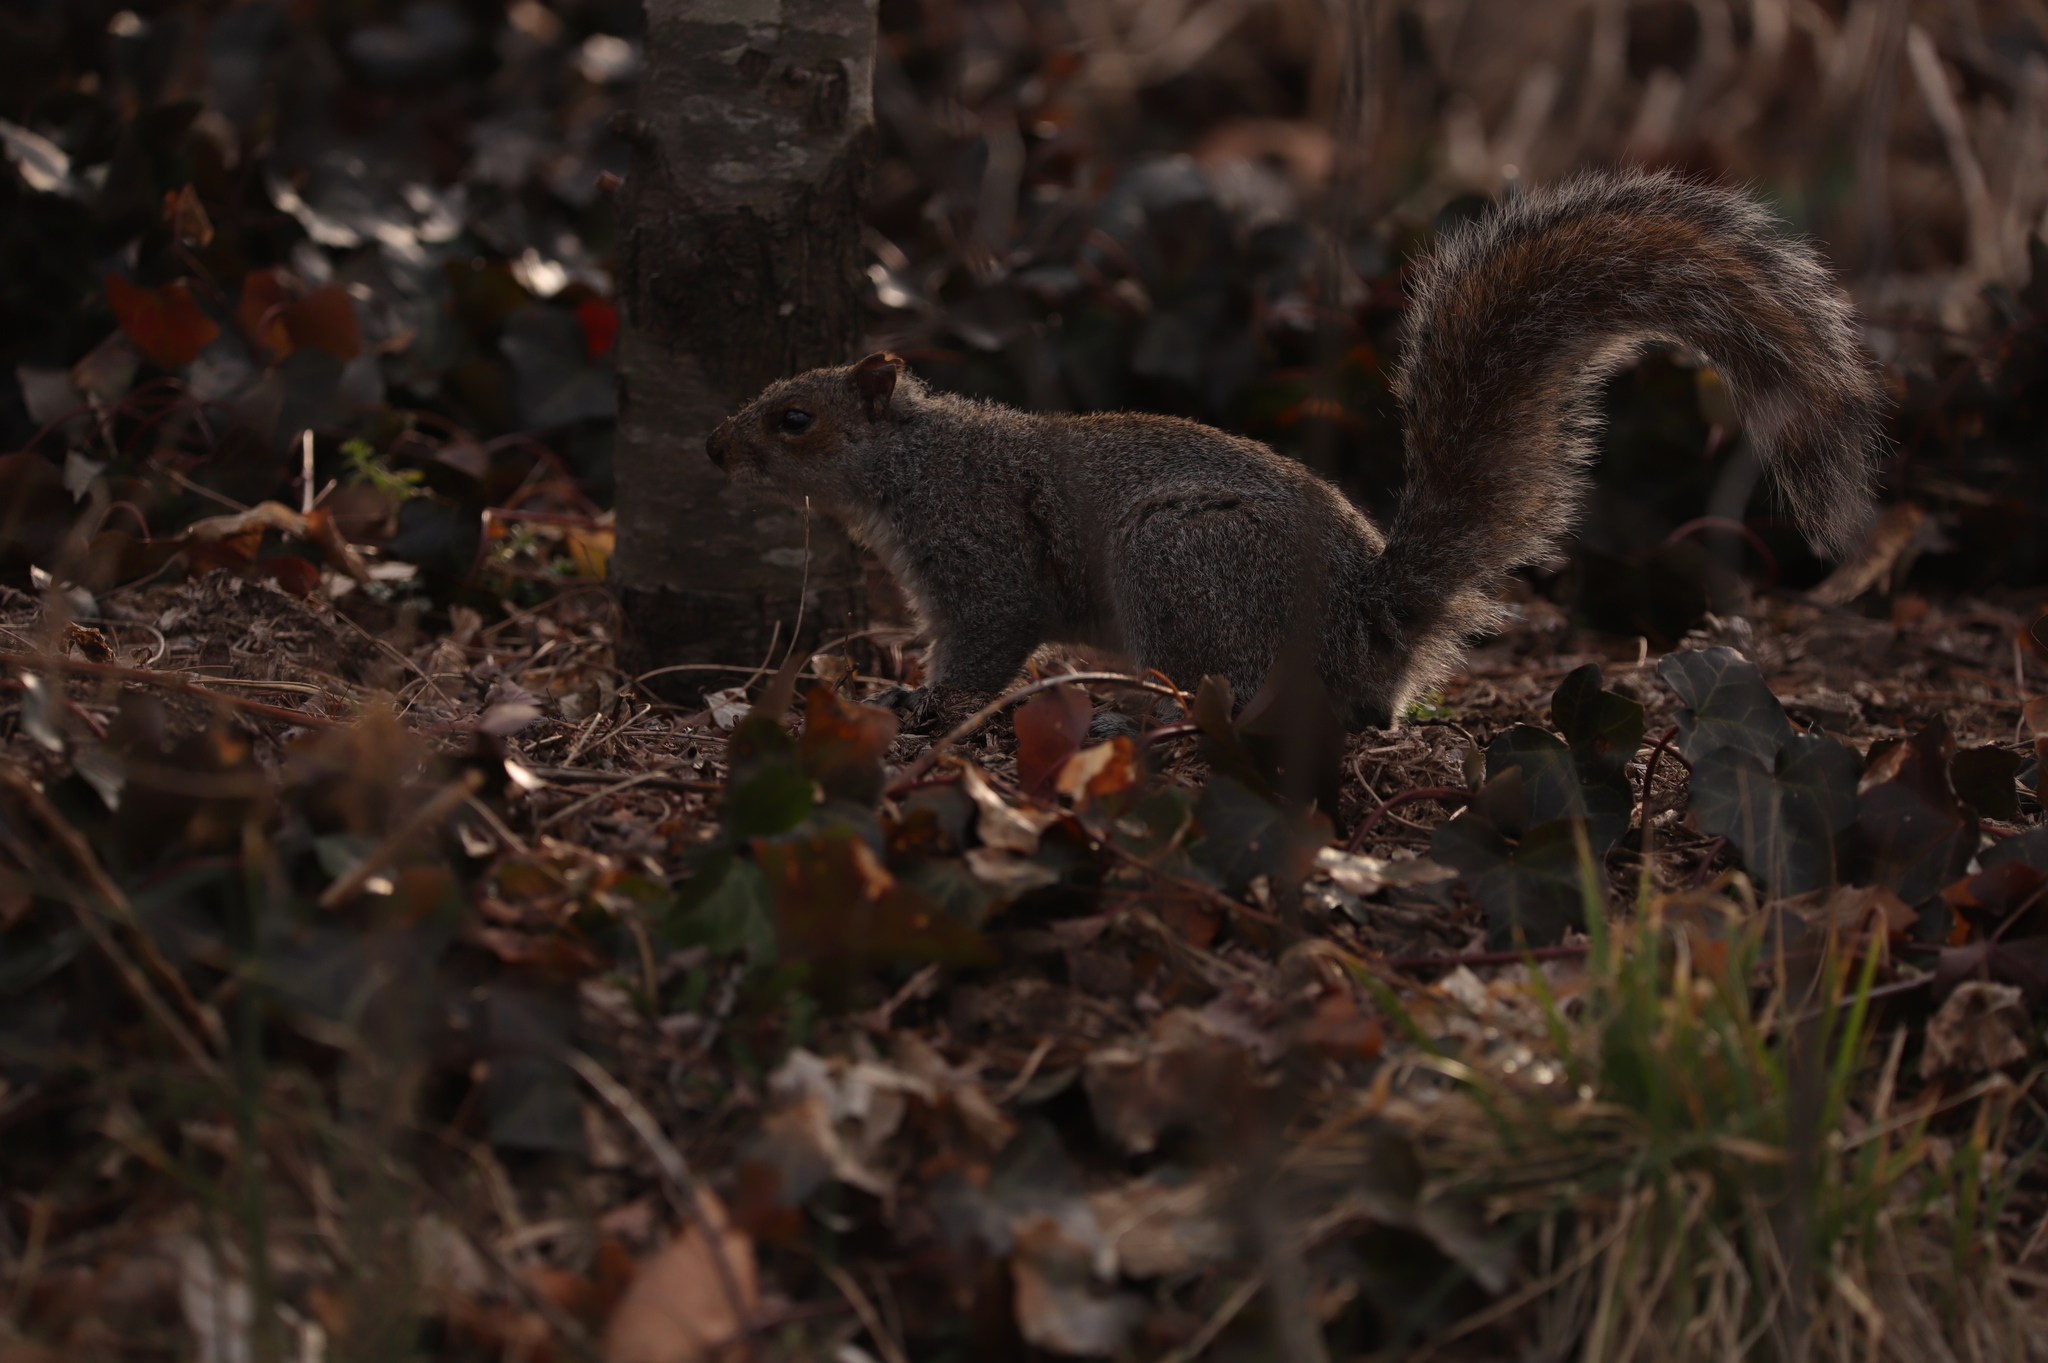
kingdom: Animalia
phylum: Chordata
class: Mammalia
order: Rodentia
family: Sciuridae
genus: Sciurus
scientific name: Sciurus carolinensis
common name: Eastern gray squirrel
